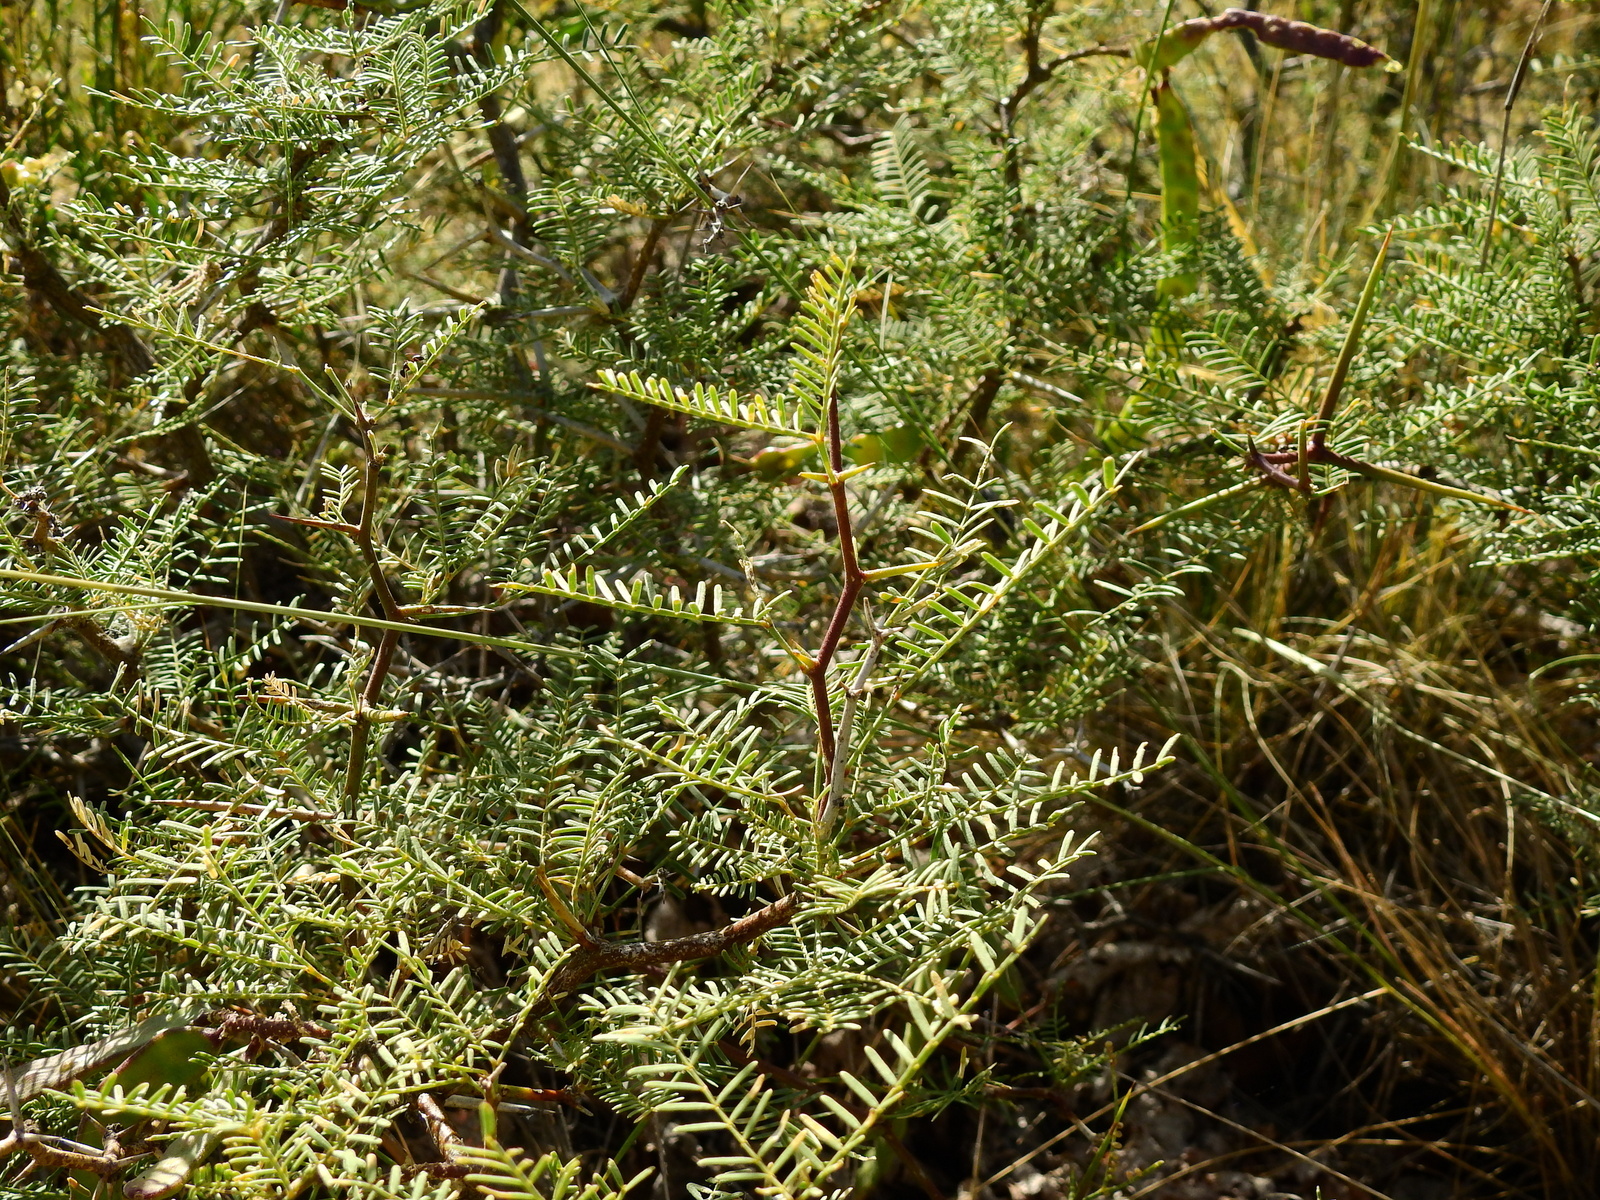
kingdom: Plantae
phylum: Tracheophyta
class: Magnoliopsida
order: Fabales
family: Fabaceae
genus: Prosopis
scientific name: Prosopis flexuosa
